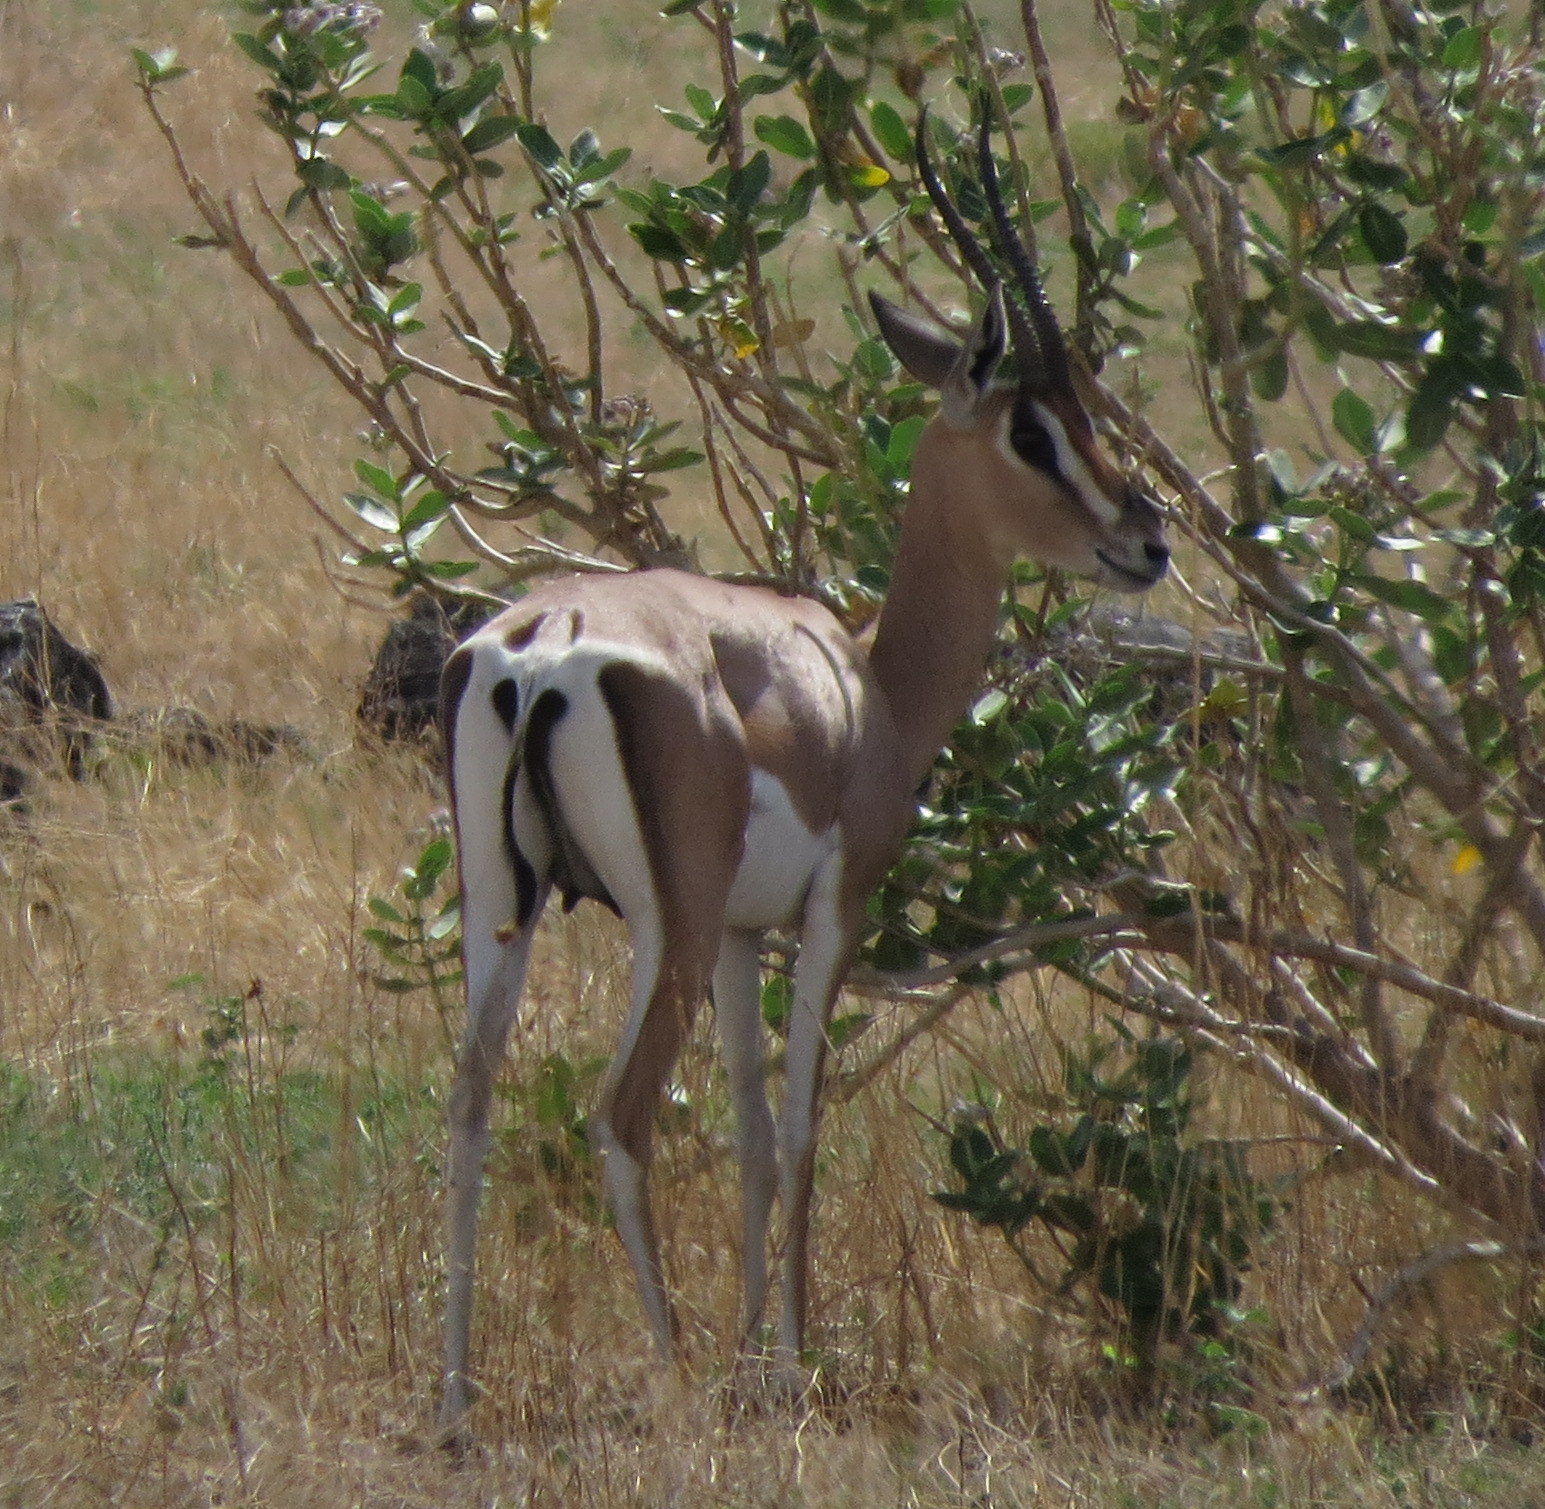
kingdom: Animalia
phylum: Chordata
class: Mammalia
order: Artiodactyla
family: Bovidae
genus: Nanger
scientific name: Nanger granti
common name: Grant's gazelle
